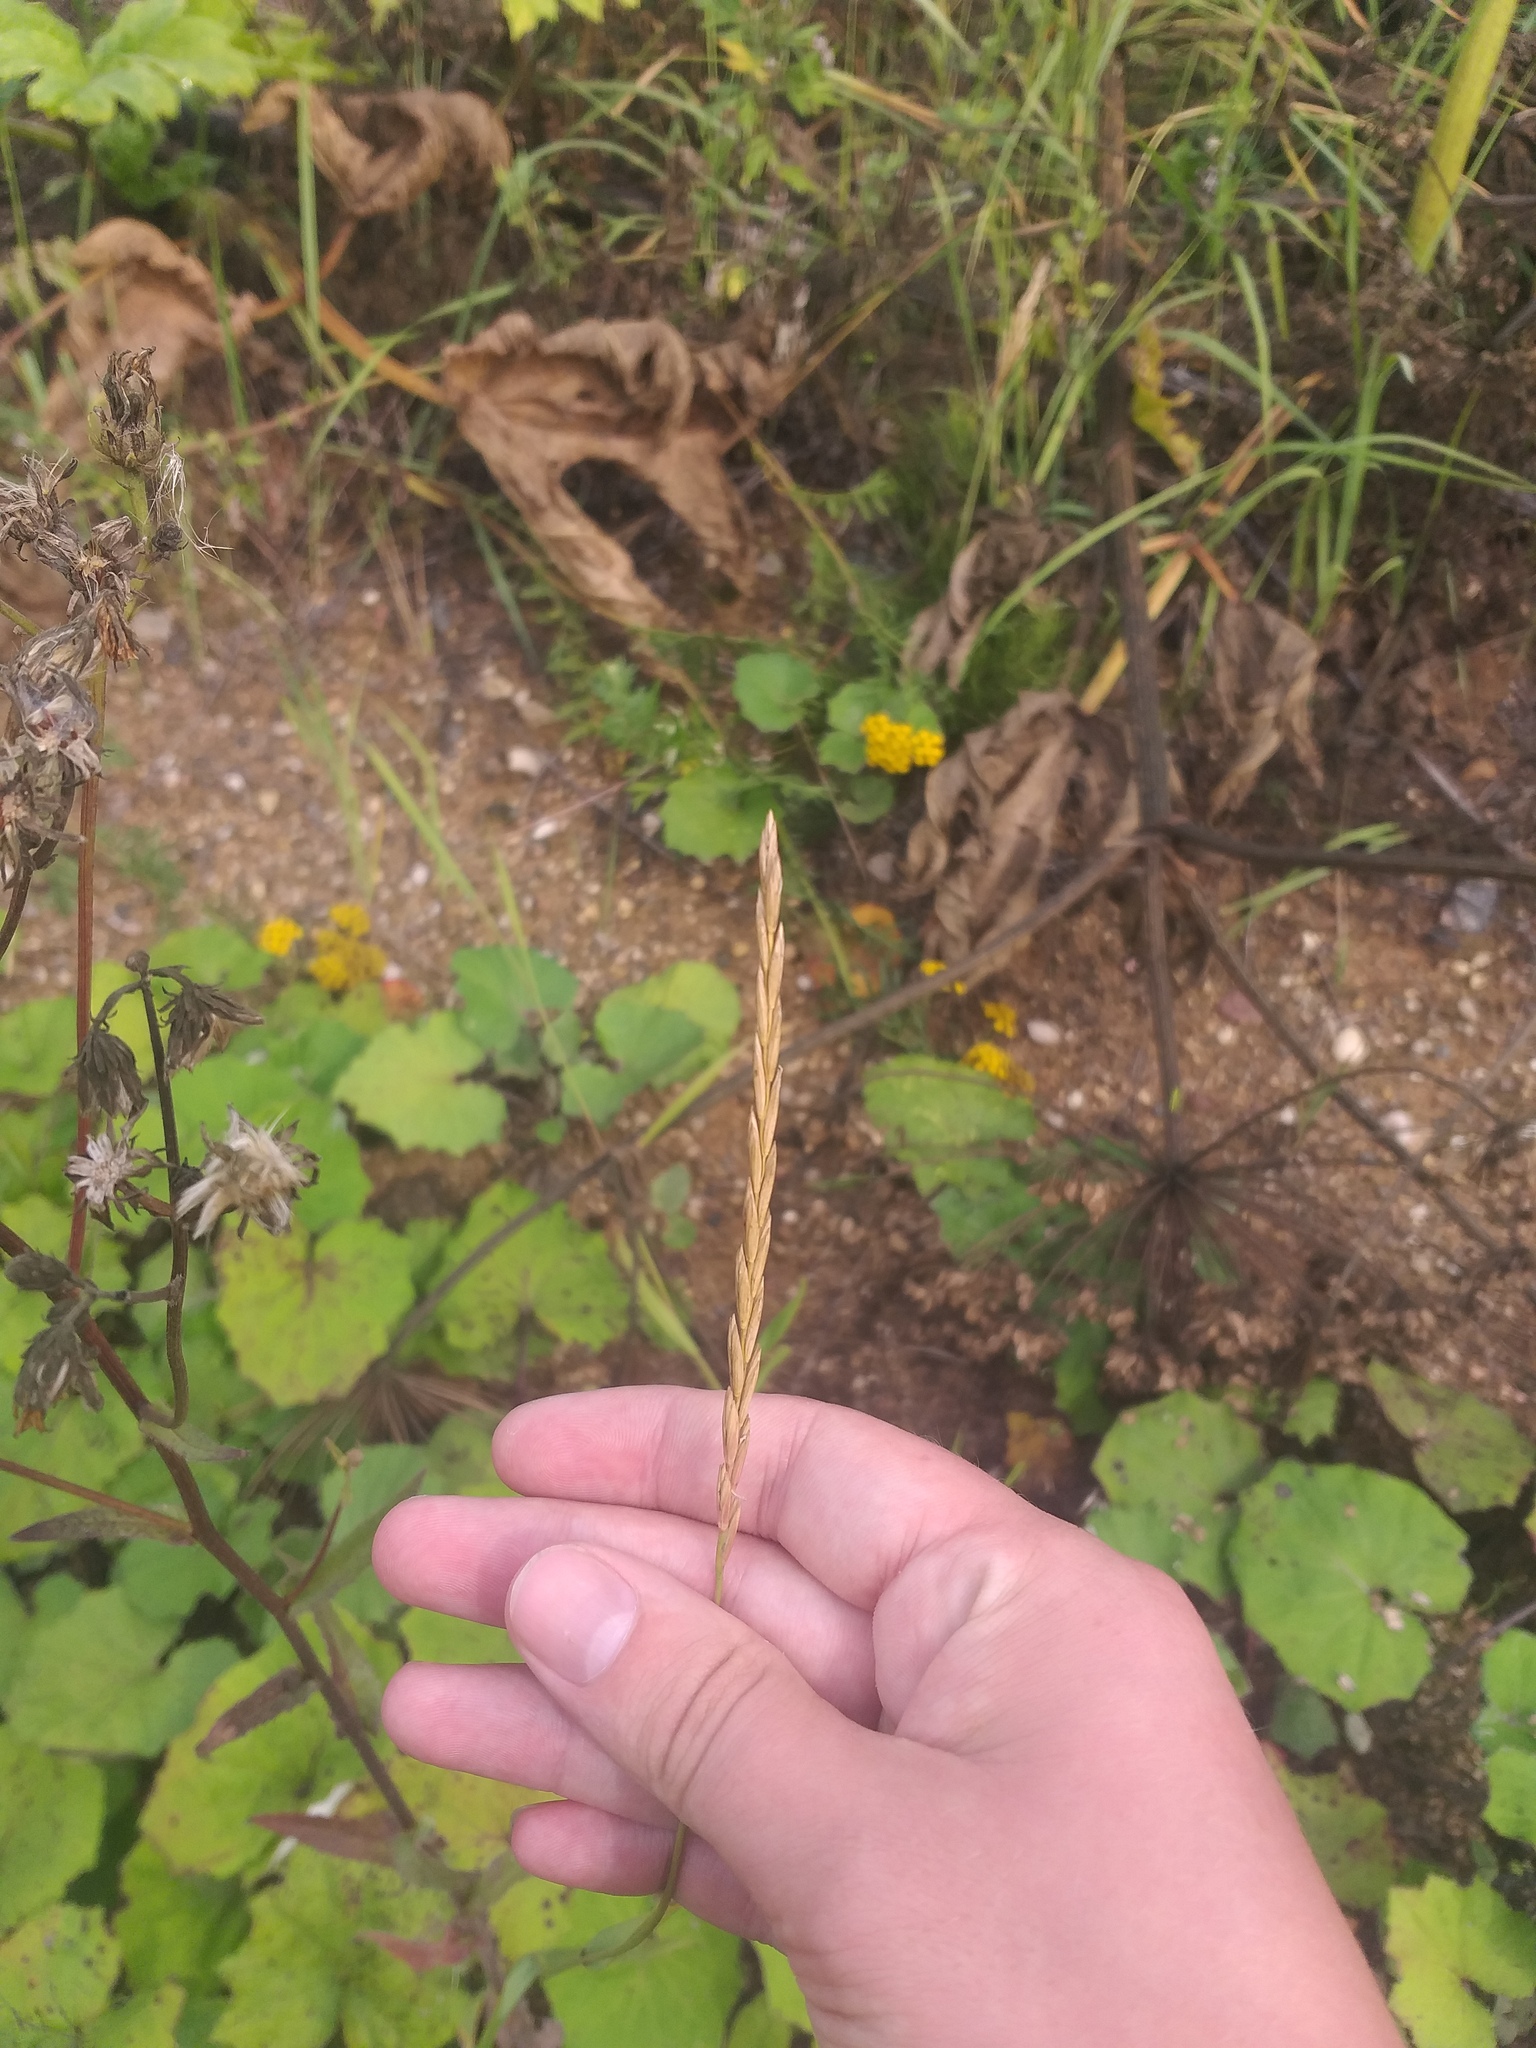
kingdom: Plantae
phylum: Tracheophyta
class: Liliopsida
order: Poales
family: Poaceae
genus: Elymus
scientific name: Elymus repens
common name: Quackgrass
